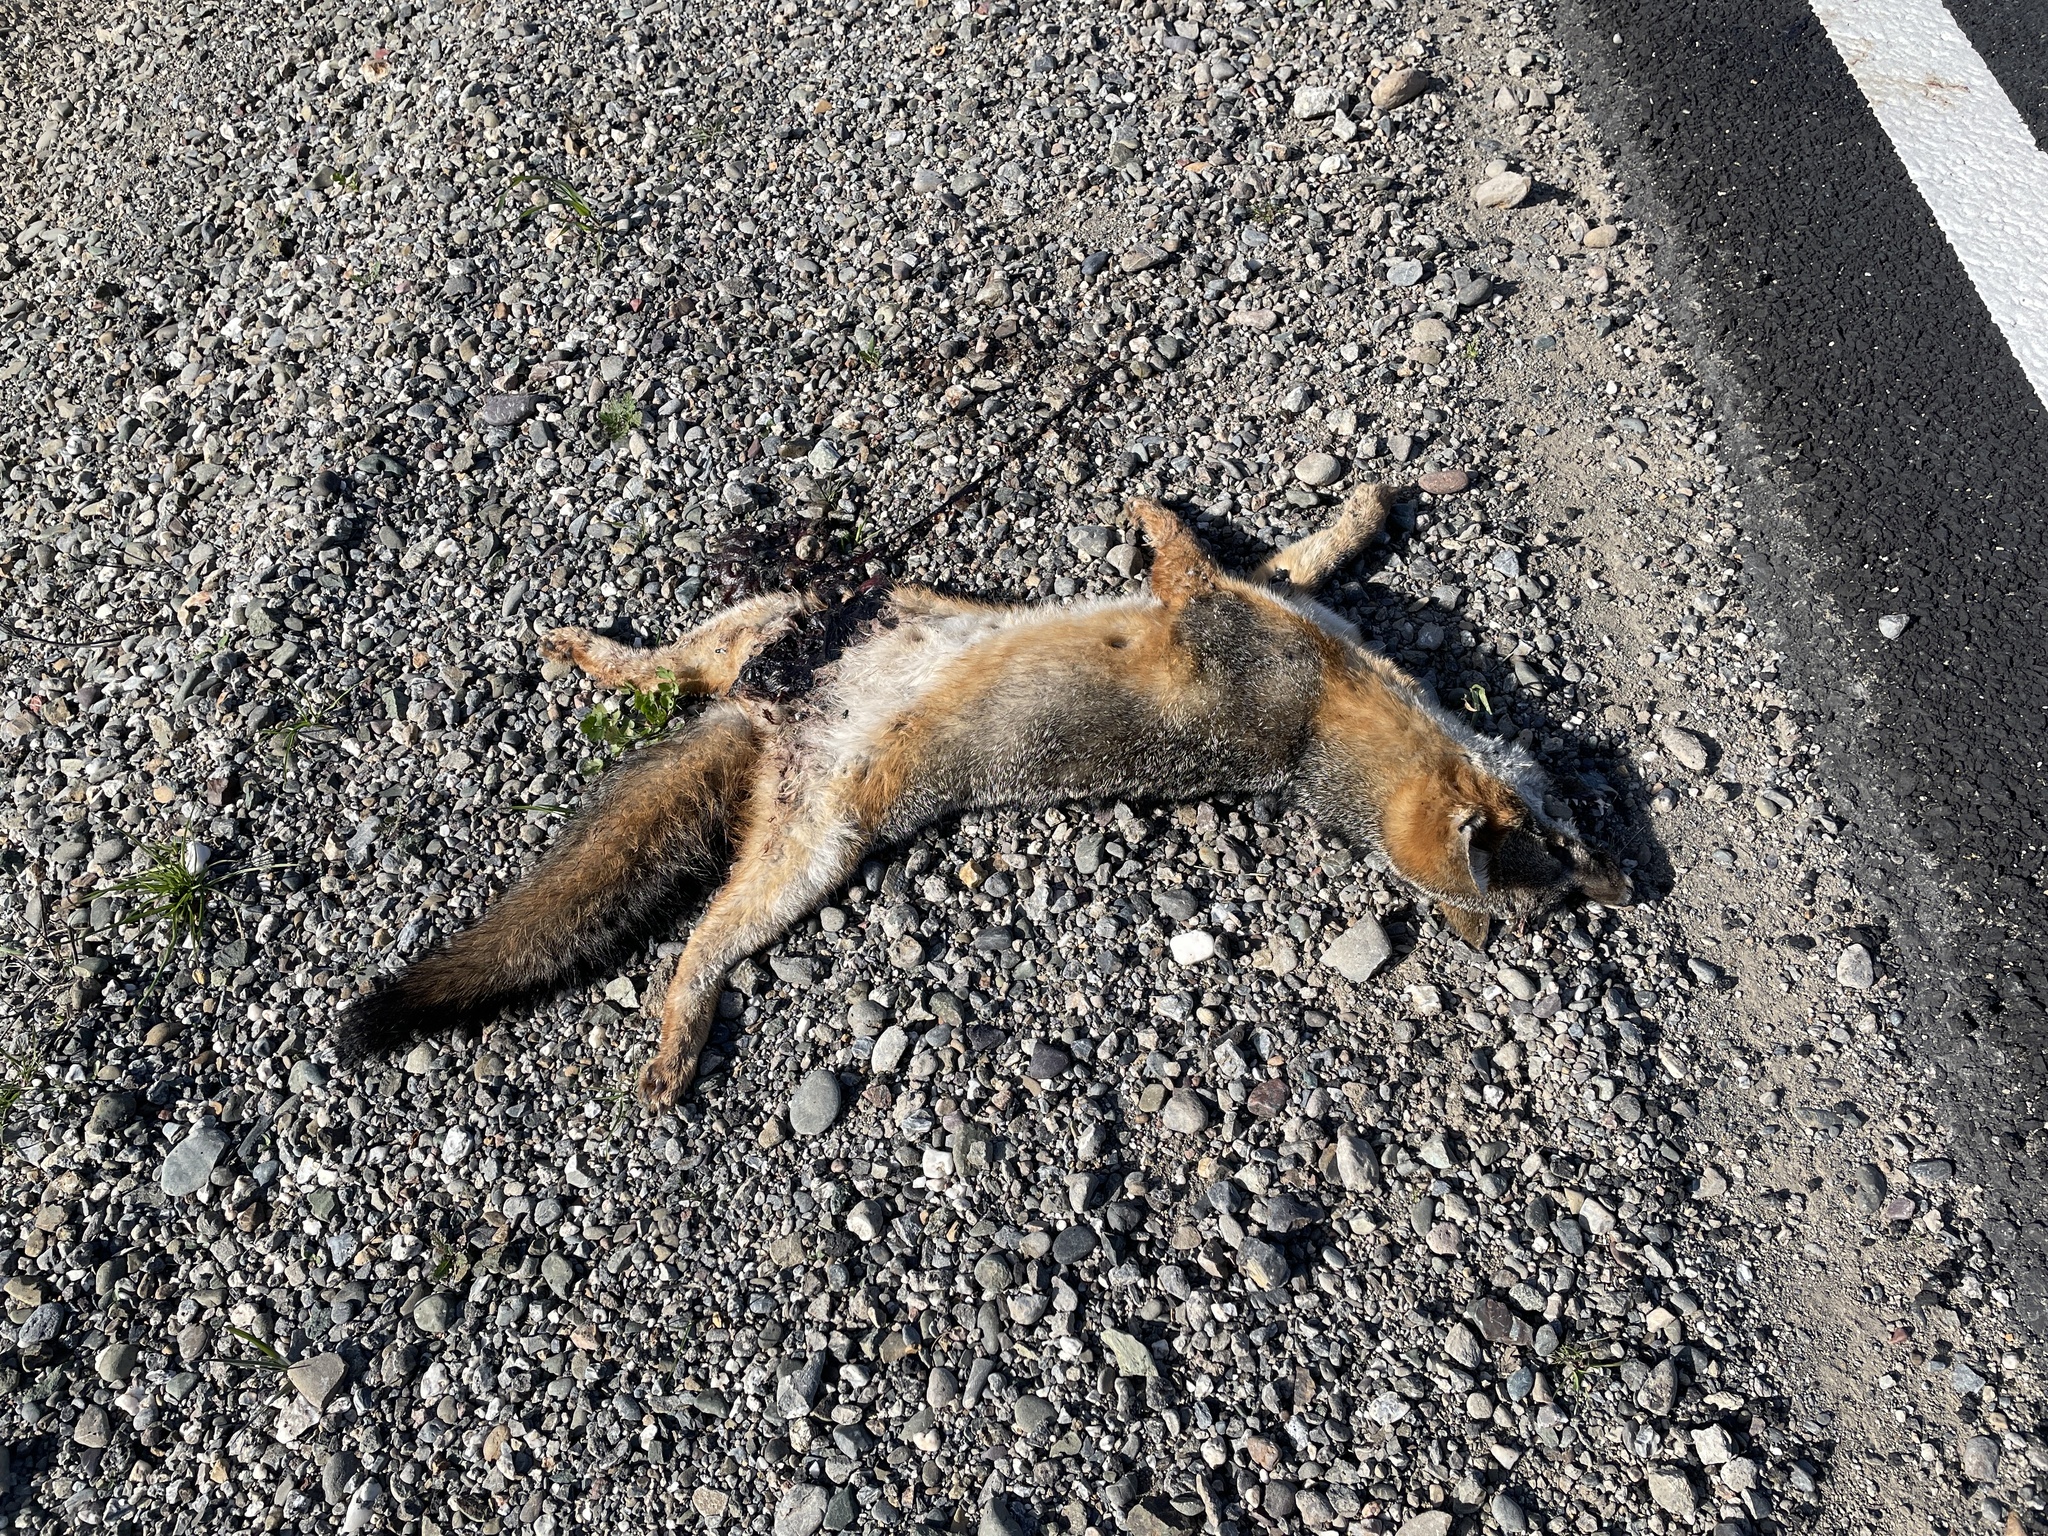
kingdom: Animalia
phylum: Chordata
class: Mammalia
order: Carnivora
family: Canidae
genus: Urocyon
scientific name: Urocyon cinereoargenteus
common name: Gray fox
